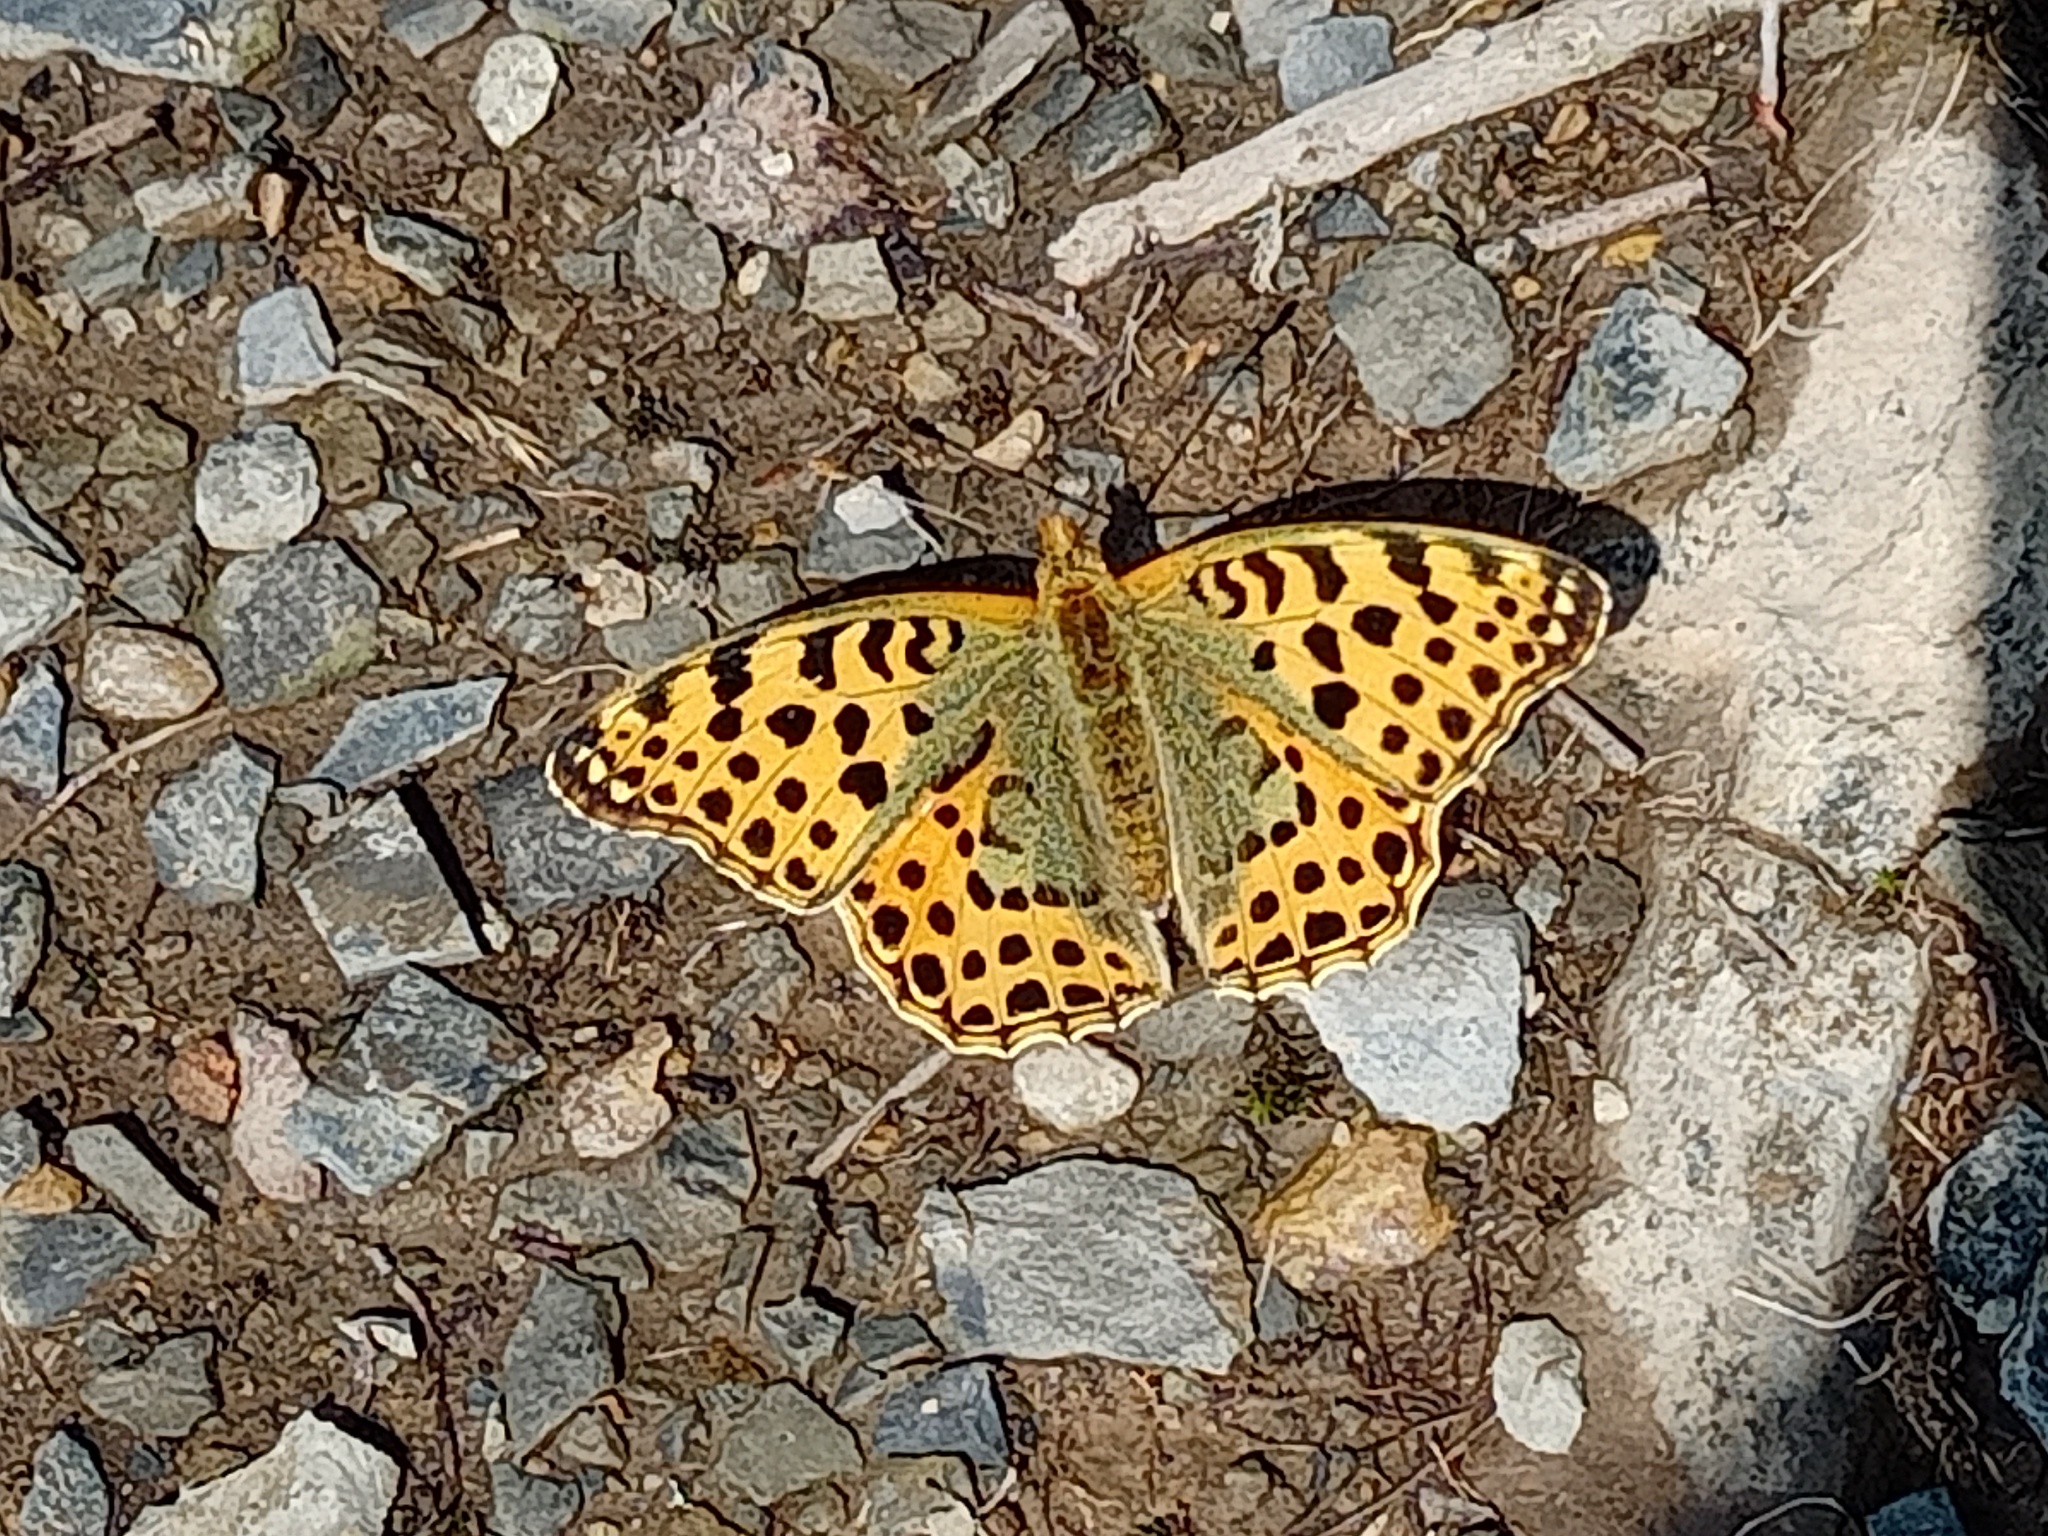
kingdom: Animalia
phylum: Arthropoda
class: Insecta
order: Lepidoptera
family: Nymphalidae
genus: Issoria
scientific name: Issoria lathonia
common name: Queen of spain fritillary
